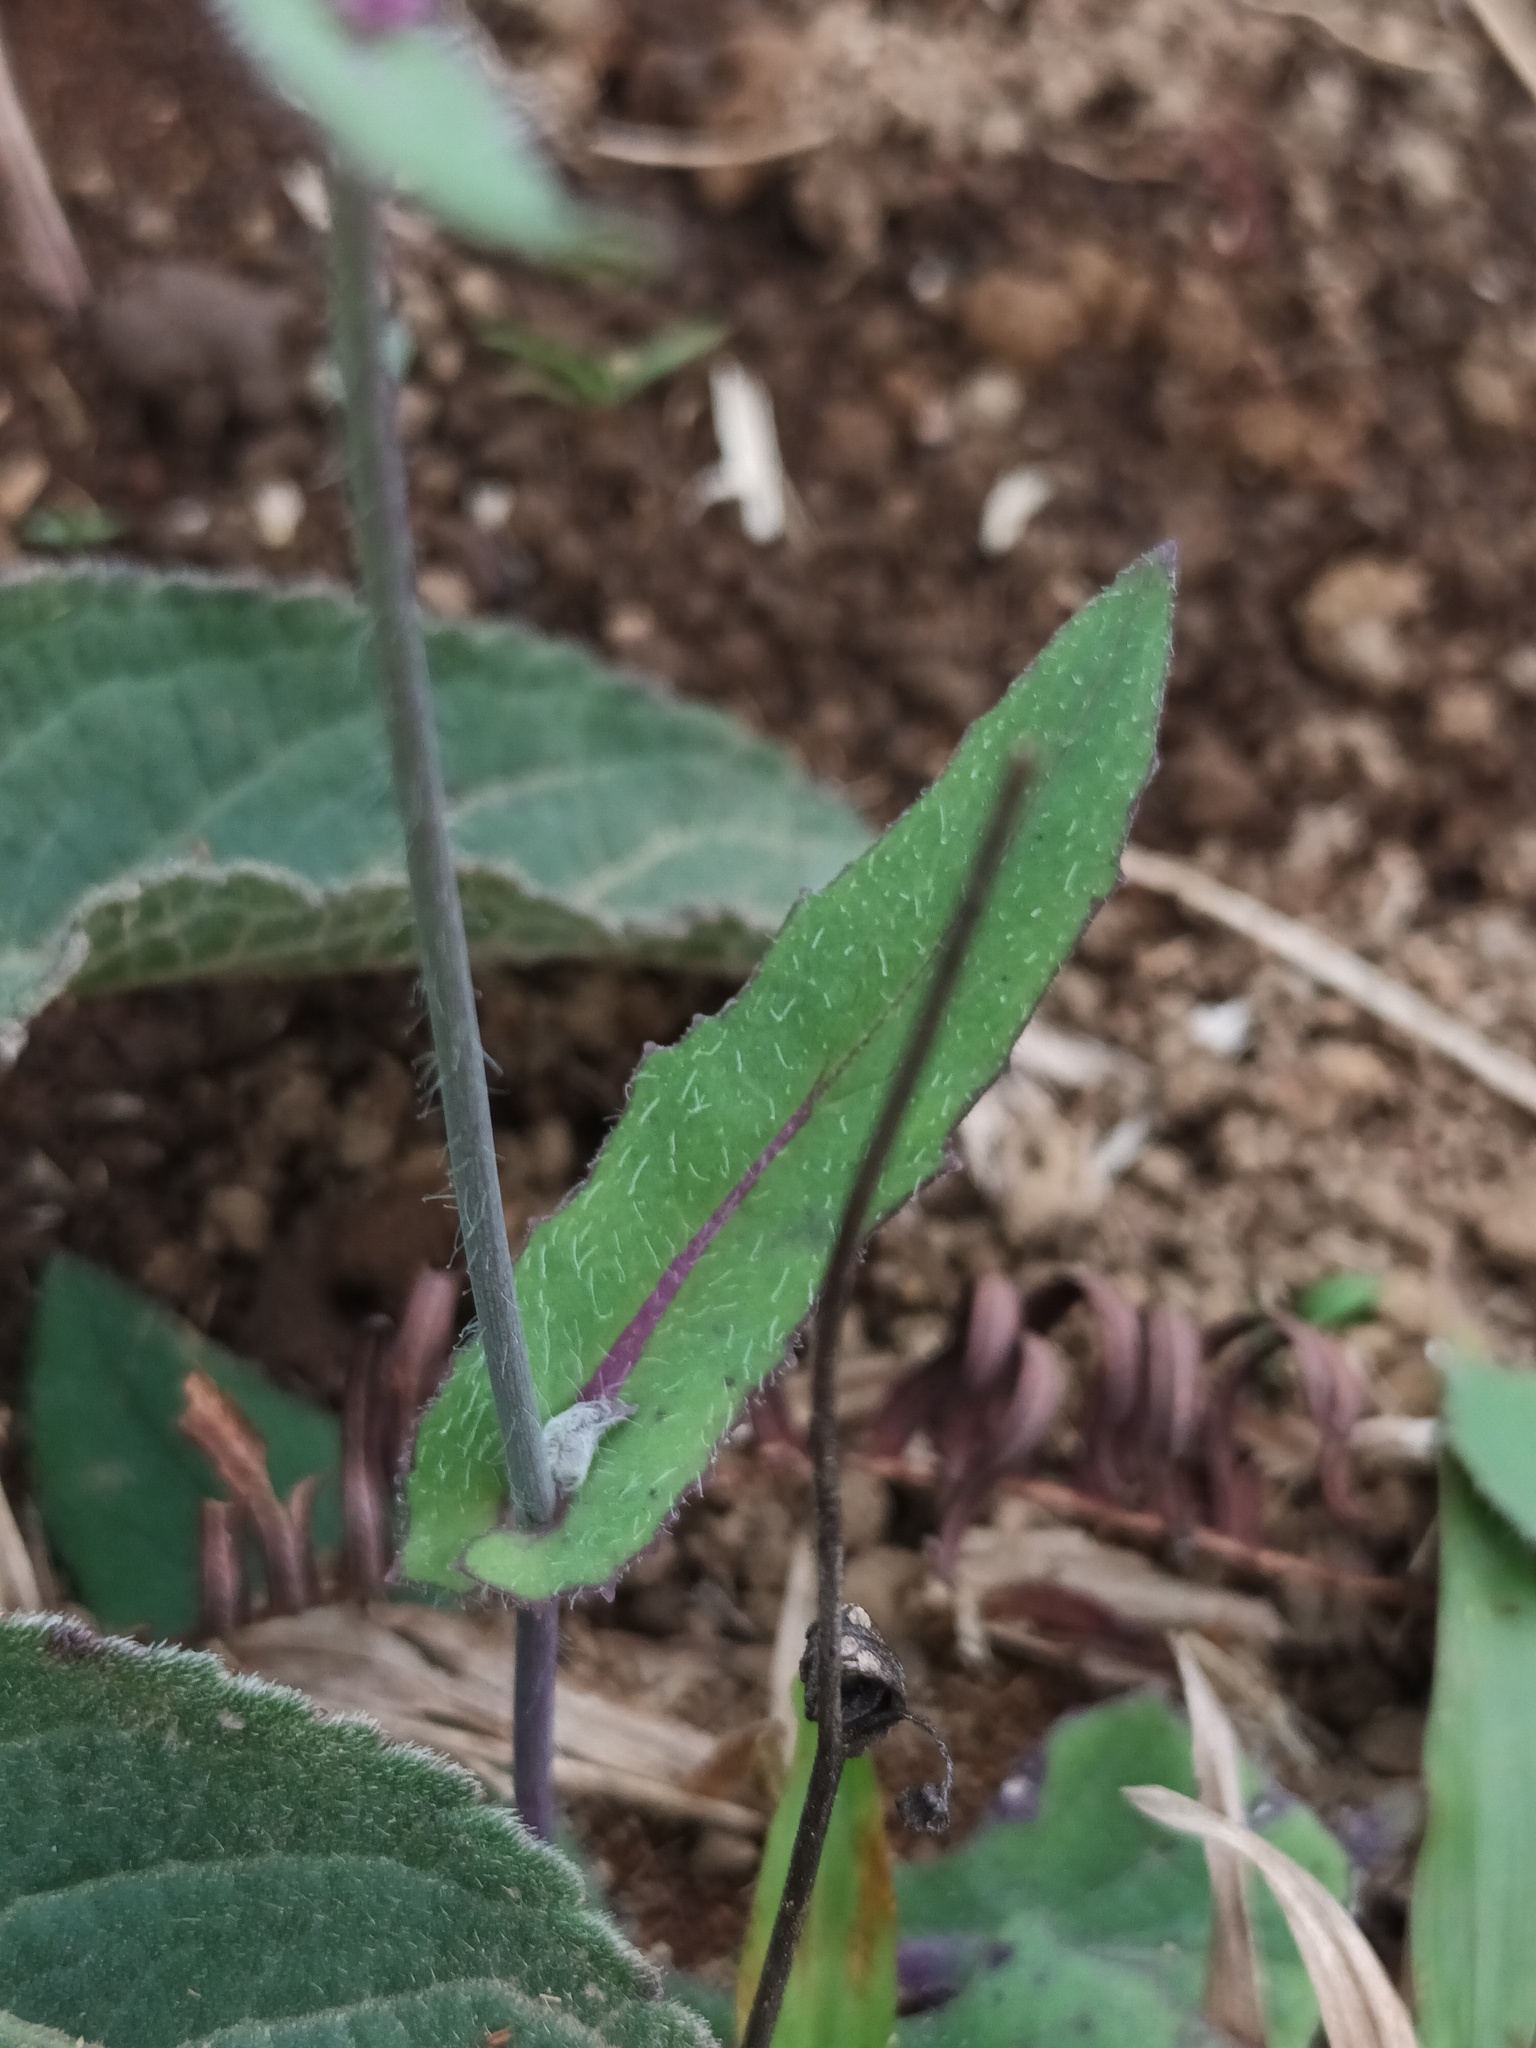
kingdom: Plantae
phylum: Tracheophyta
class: Magnoliopsida
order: Asterales
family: Asteraceae
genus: Emilia
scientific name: Emilia sonchifolia
